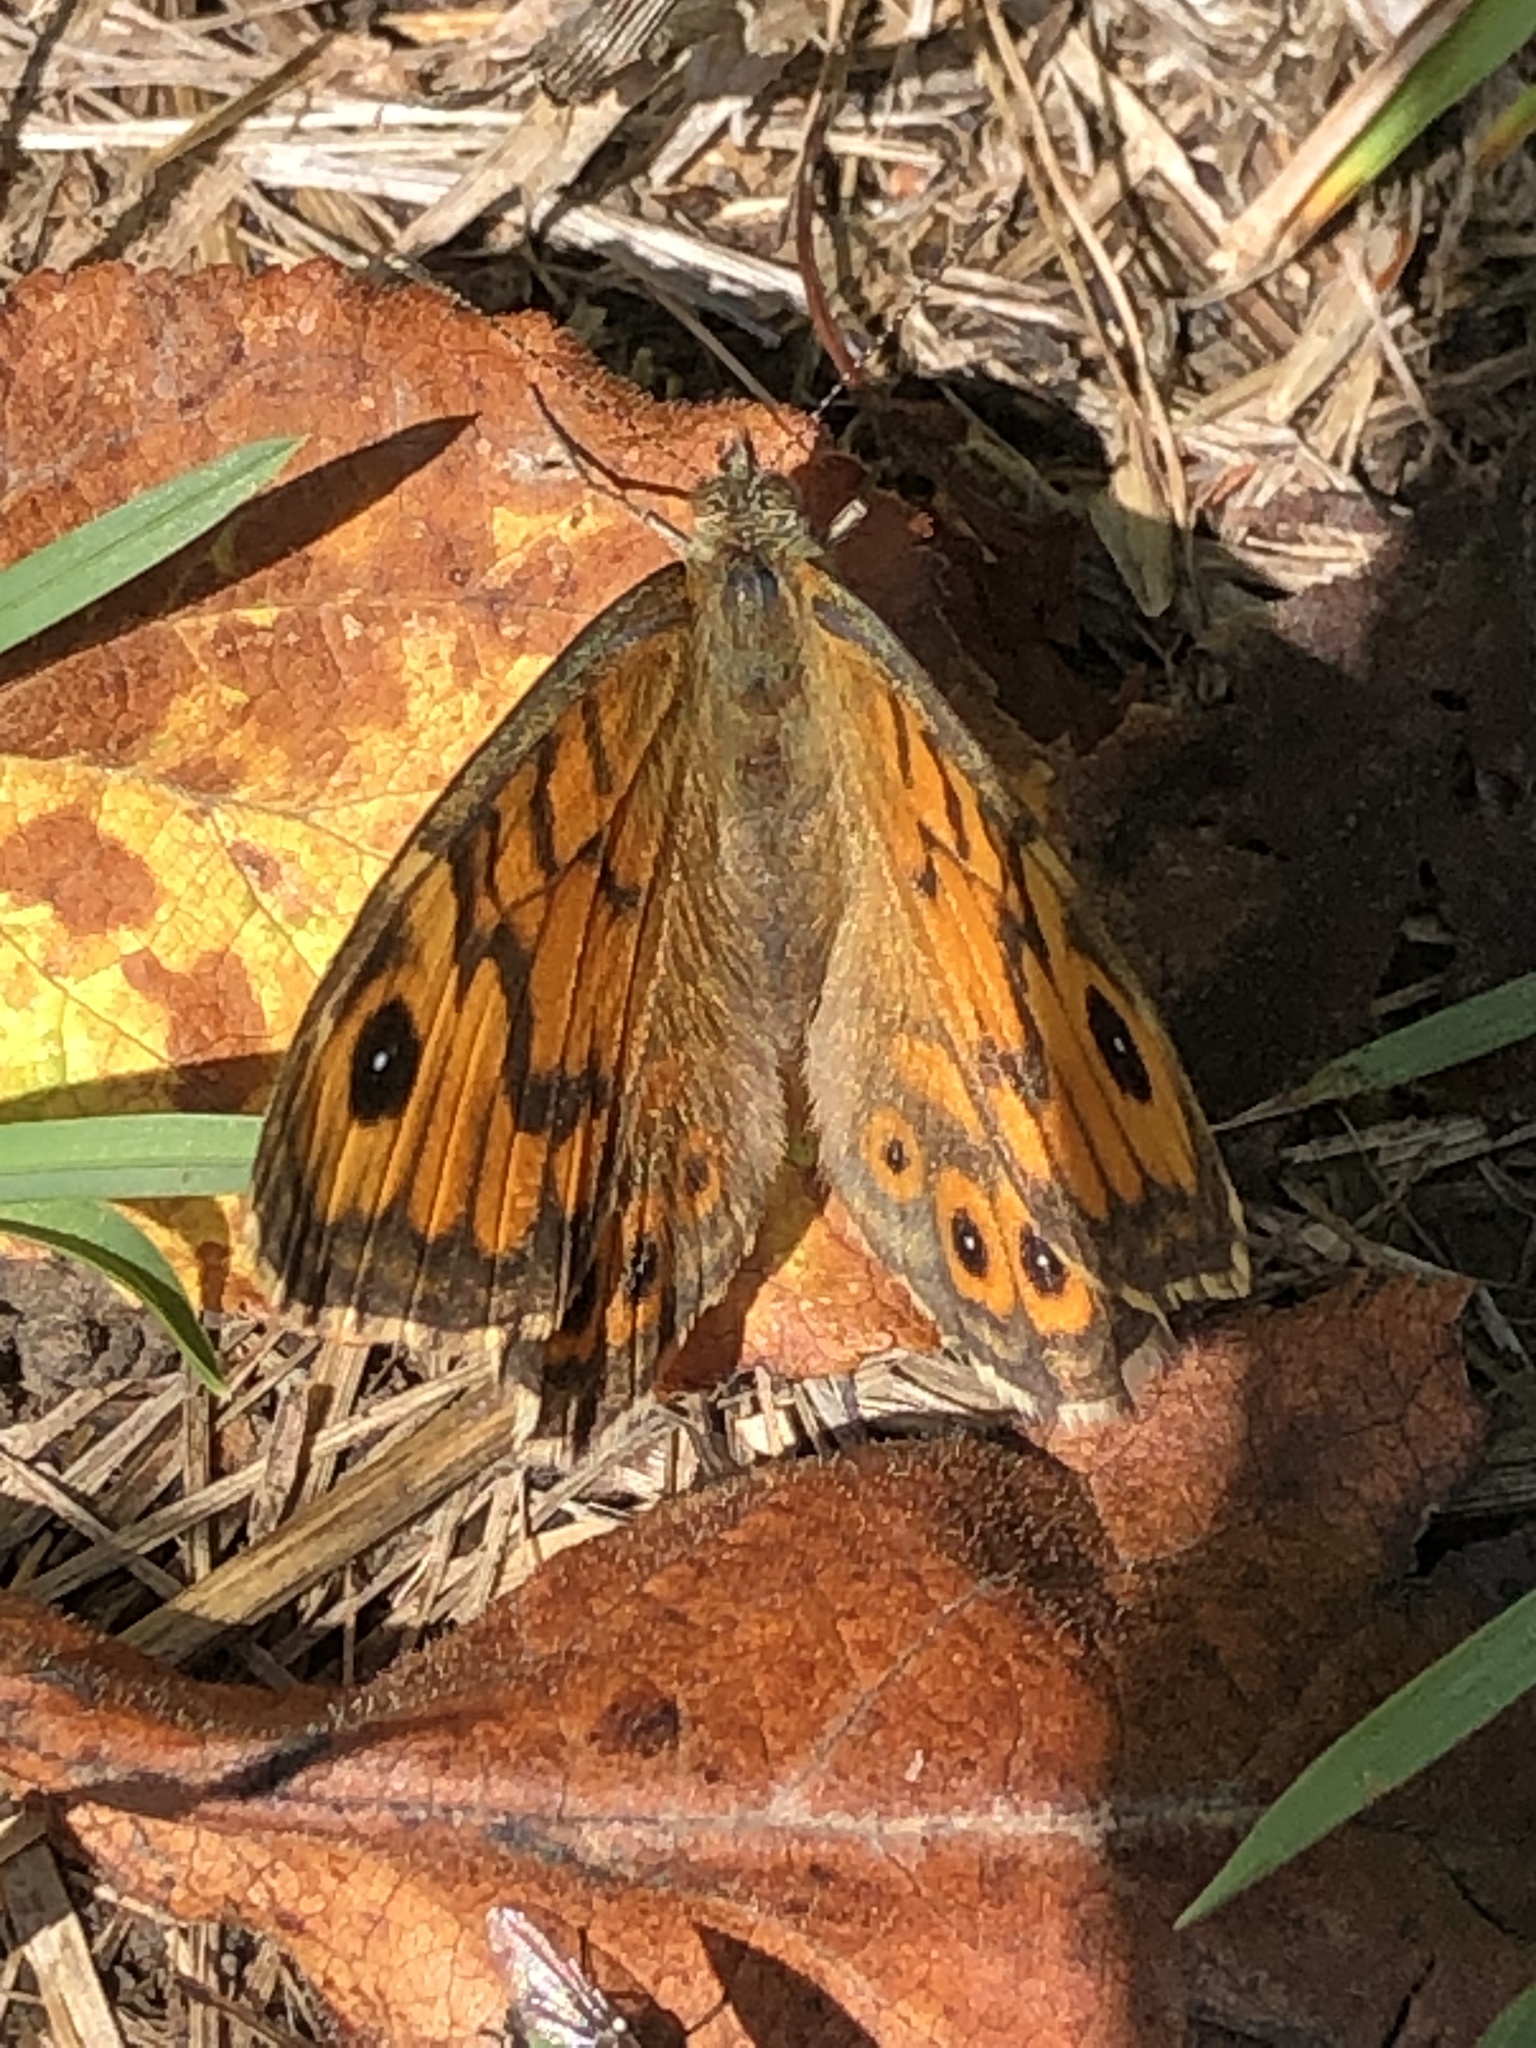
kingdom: Animalia
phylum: Arthropoda
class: Insecta
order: Lepidoptera
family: Nymphalidae
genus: Pararge
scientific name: Pararge Lasiommata megera
